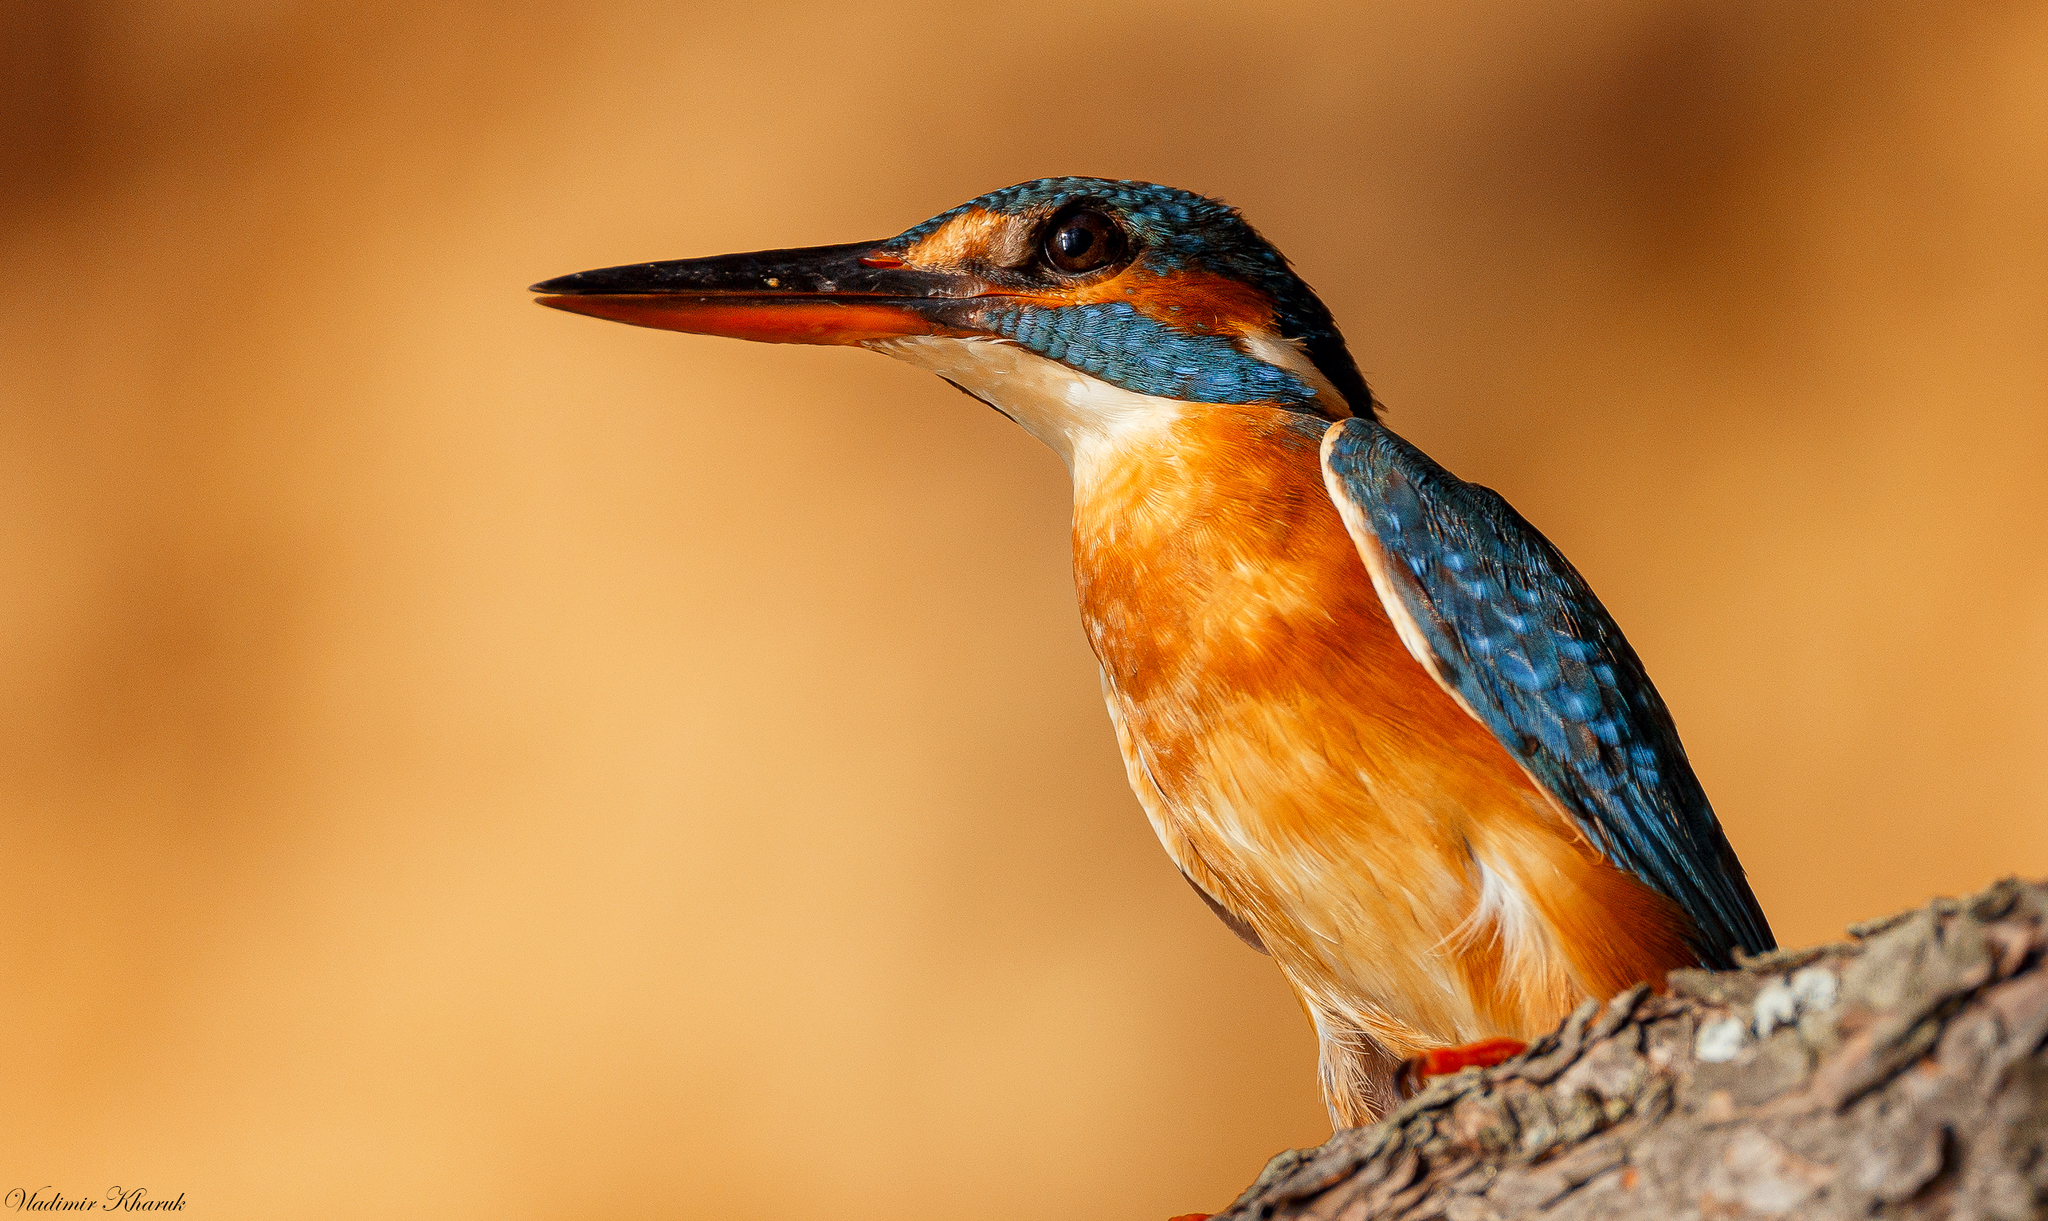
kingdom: Animalia
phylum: Chordata
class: Aves
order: Coraciiformes
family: Alcedinidae
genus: Alcedo
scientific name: Alcedo atthis
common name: Common kingfisher
